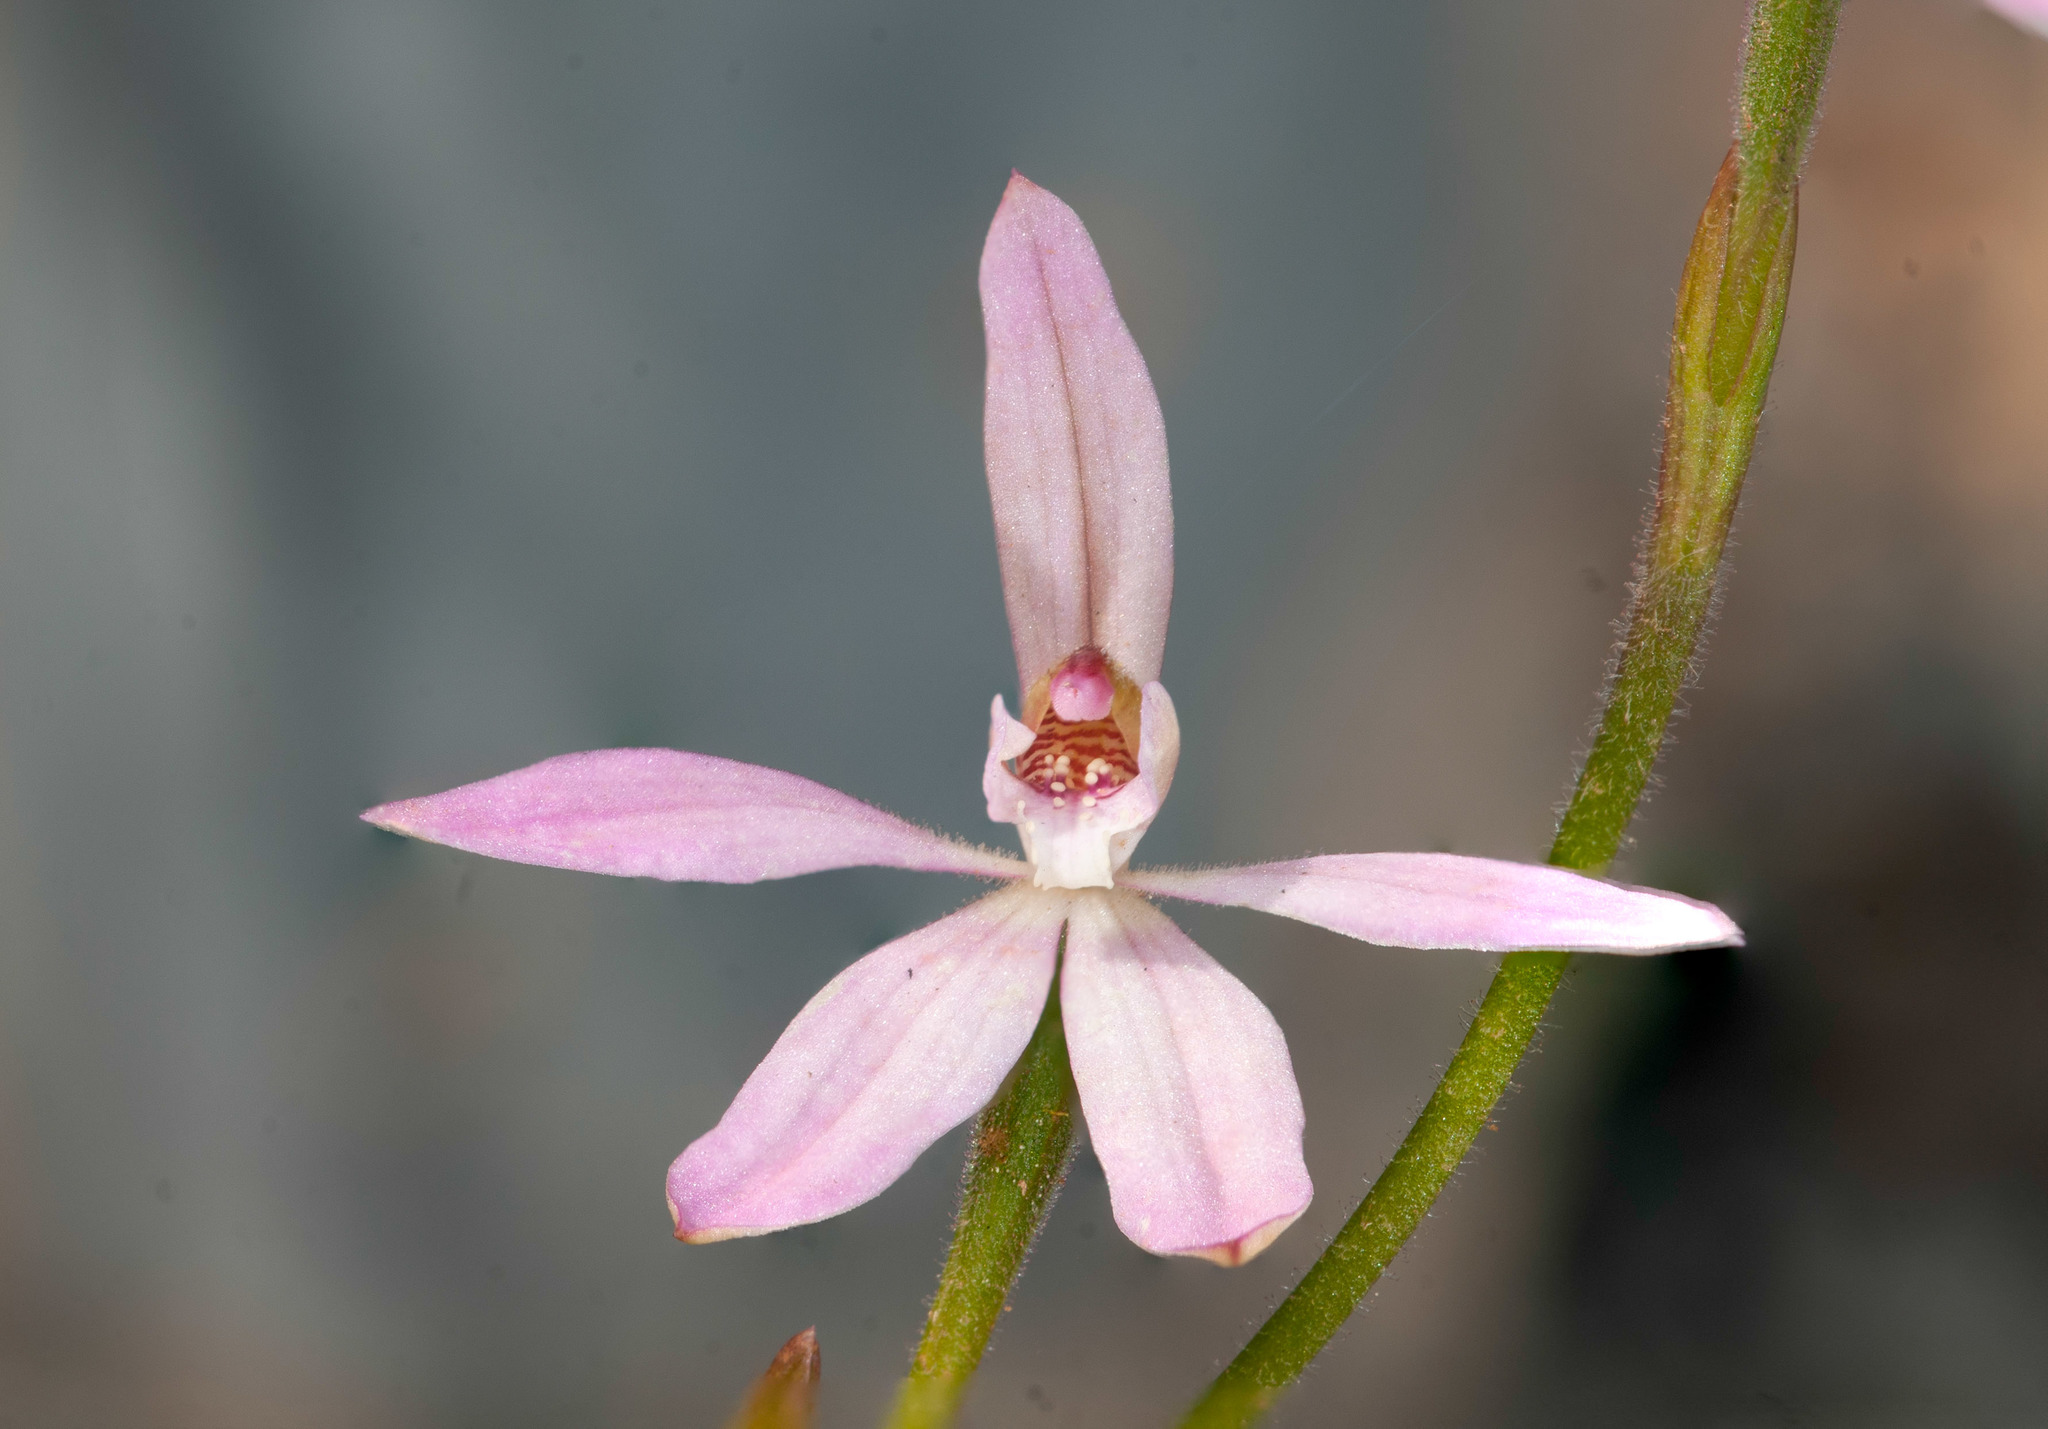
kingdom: Plantae
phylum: Tracheophyta
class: Liliopsida
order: Asparagales
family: Orchidaceae
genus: Caladenia
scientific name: Caladenia carnea
